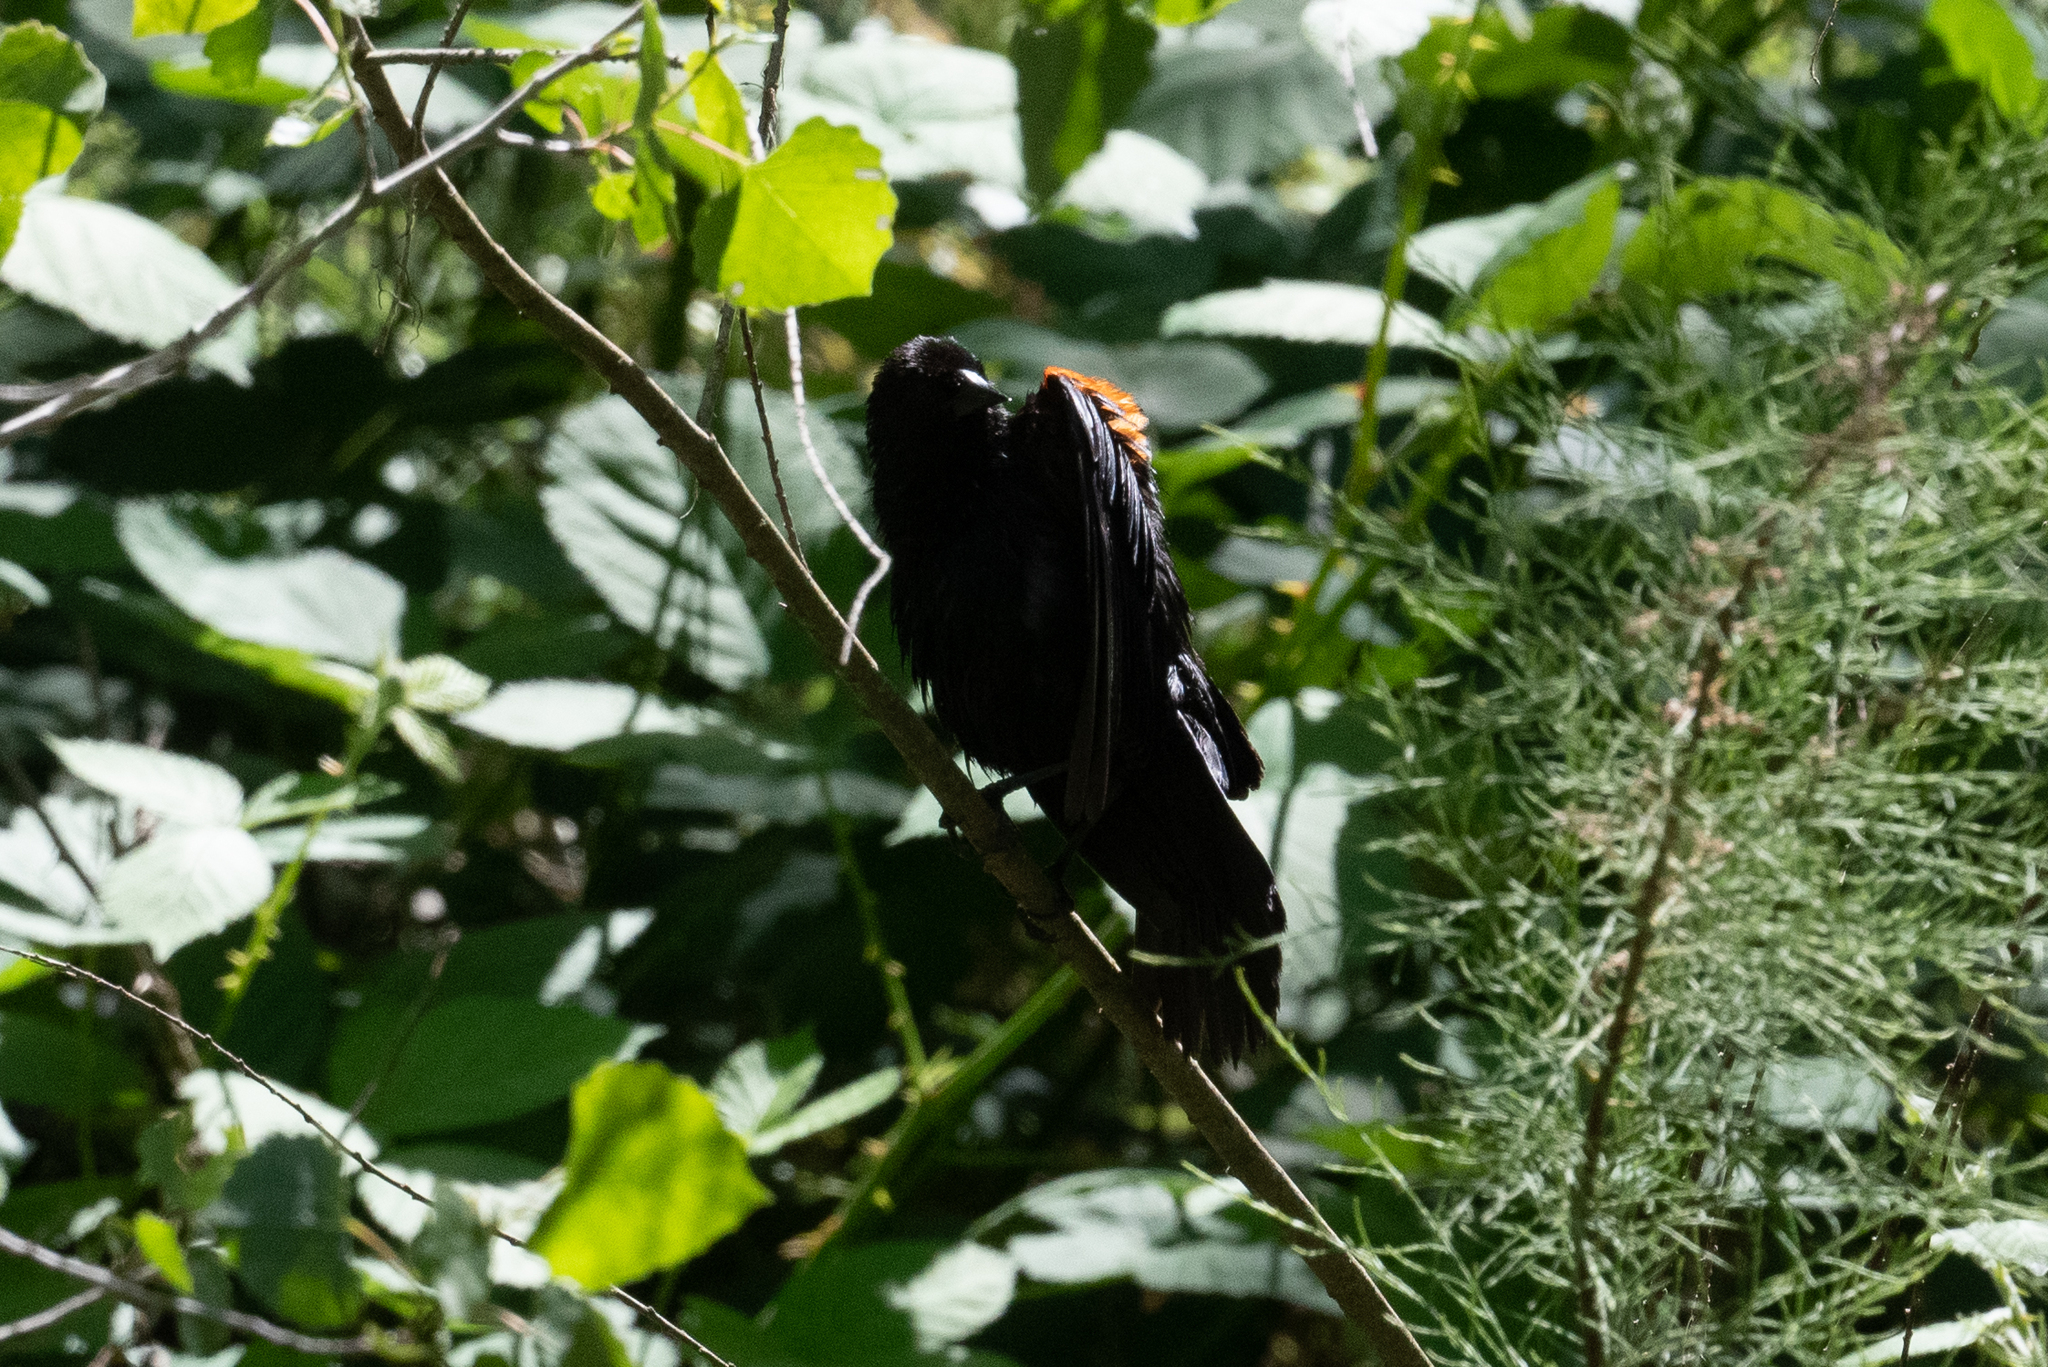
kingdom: Animalia
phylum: Chordata
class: Aves
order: Passeriformes
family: Icteridae
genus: Agelaius
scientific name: Agelaius phoeniceus
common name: Red-winged blackbird
